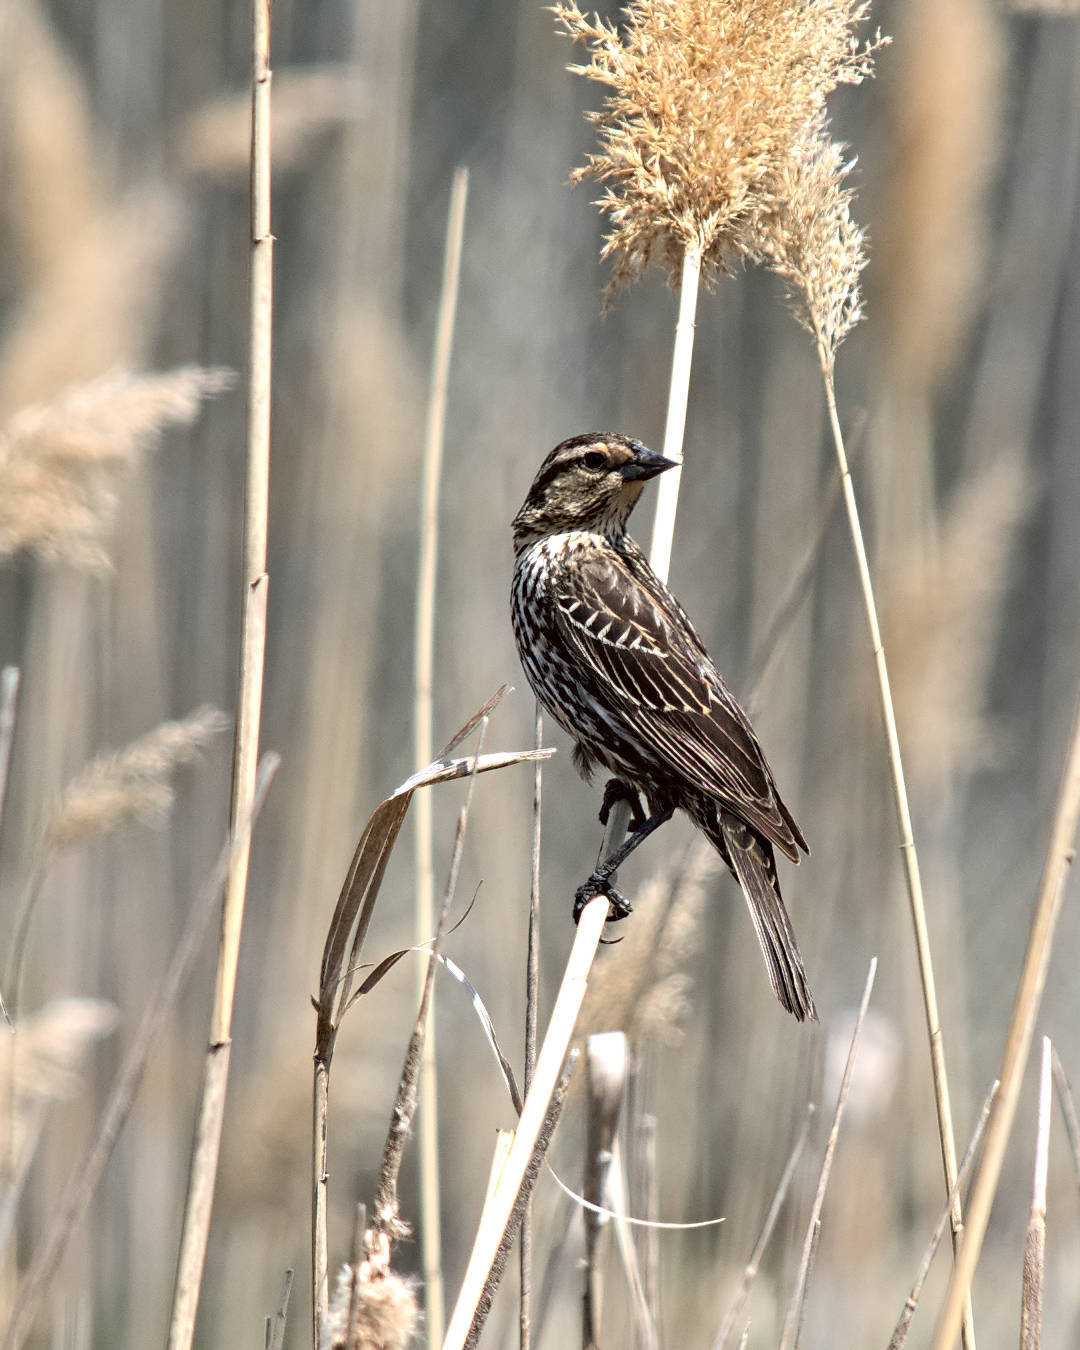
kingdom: Animalia
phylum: Chordata
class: Aves
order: Passeriformes
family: Icteridae
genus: Agelaius
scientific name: Agelaius phoeniceus
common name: Red-winged blackbird
